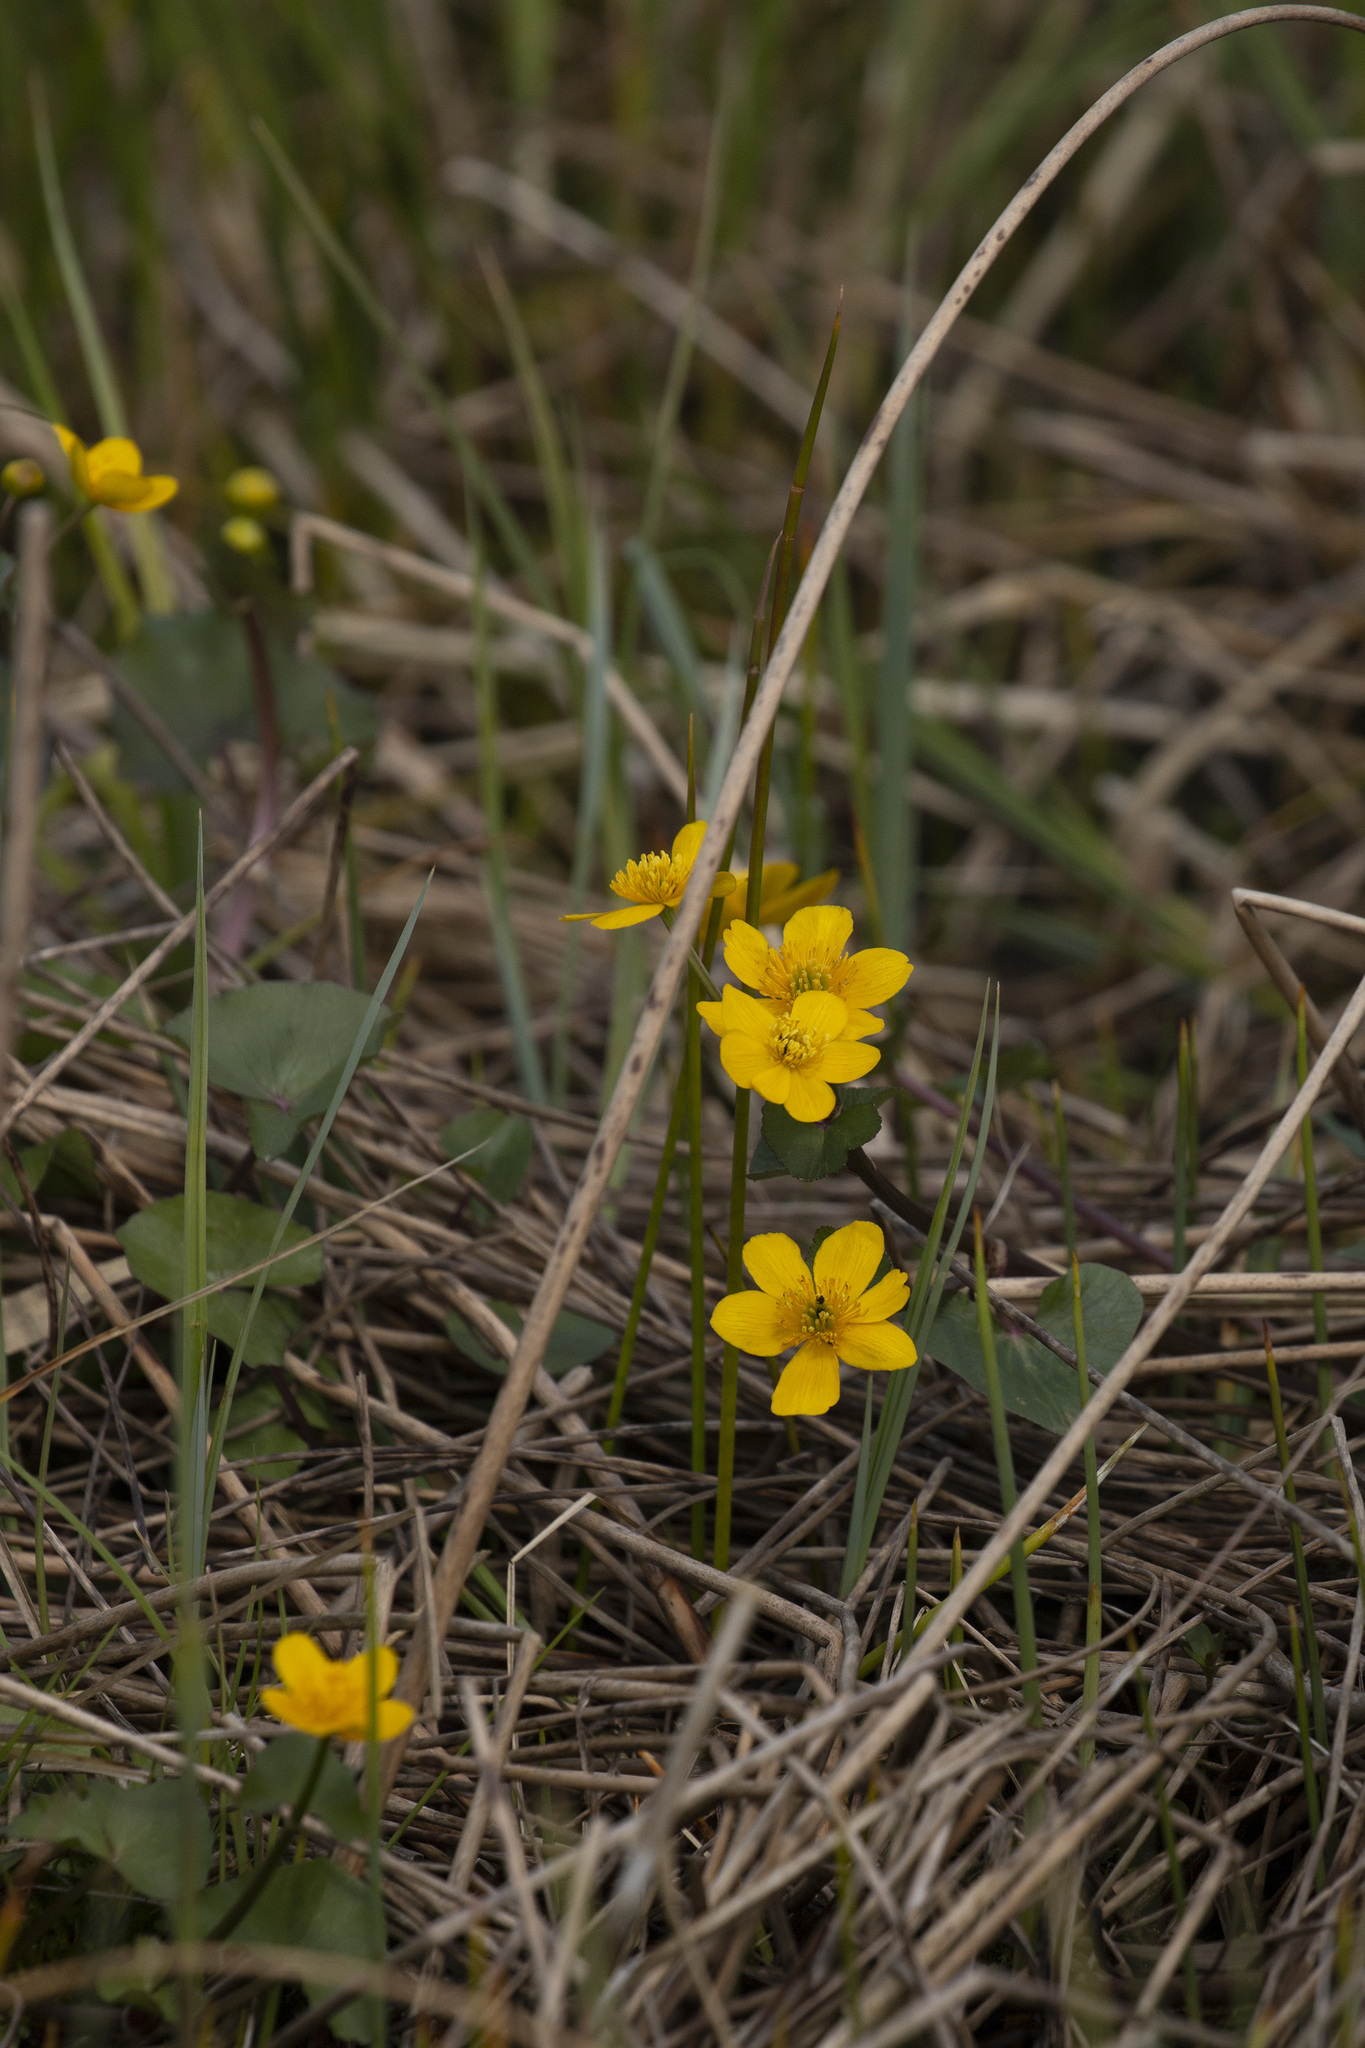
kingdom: Plantae
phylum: Tracheophyta
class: Magnoliopsida
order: Ranunculales
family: Ranunculaceae
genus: Caltha
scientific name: Caltha palustris
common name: Marsh marigold
